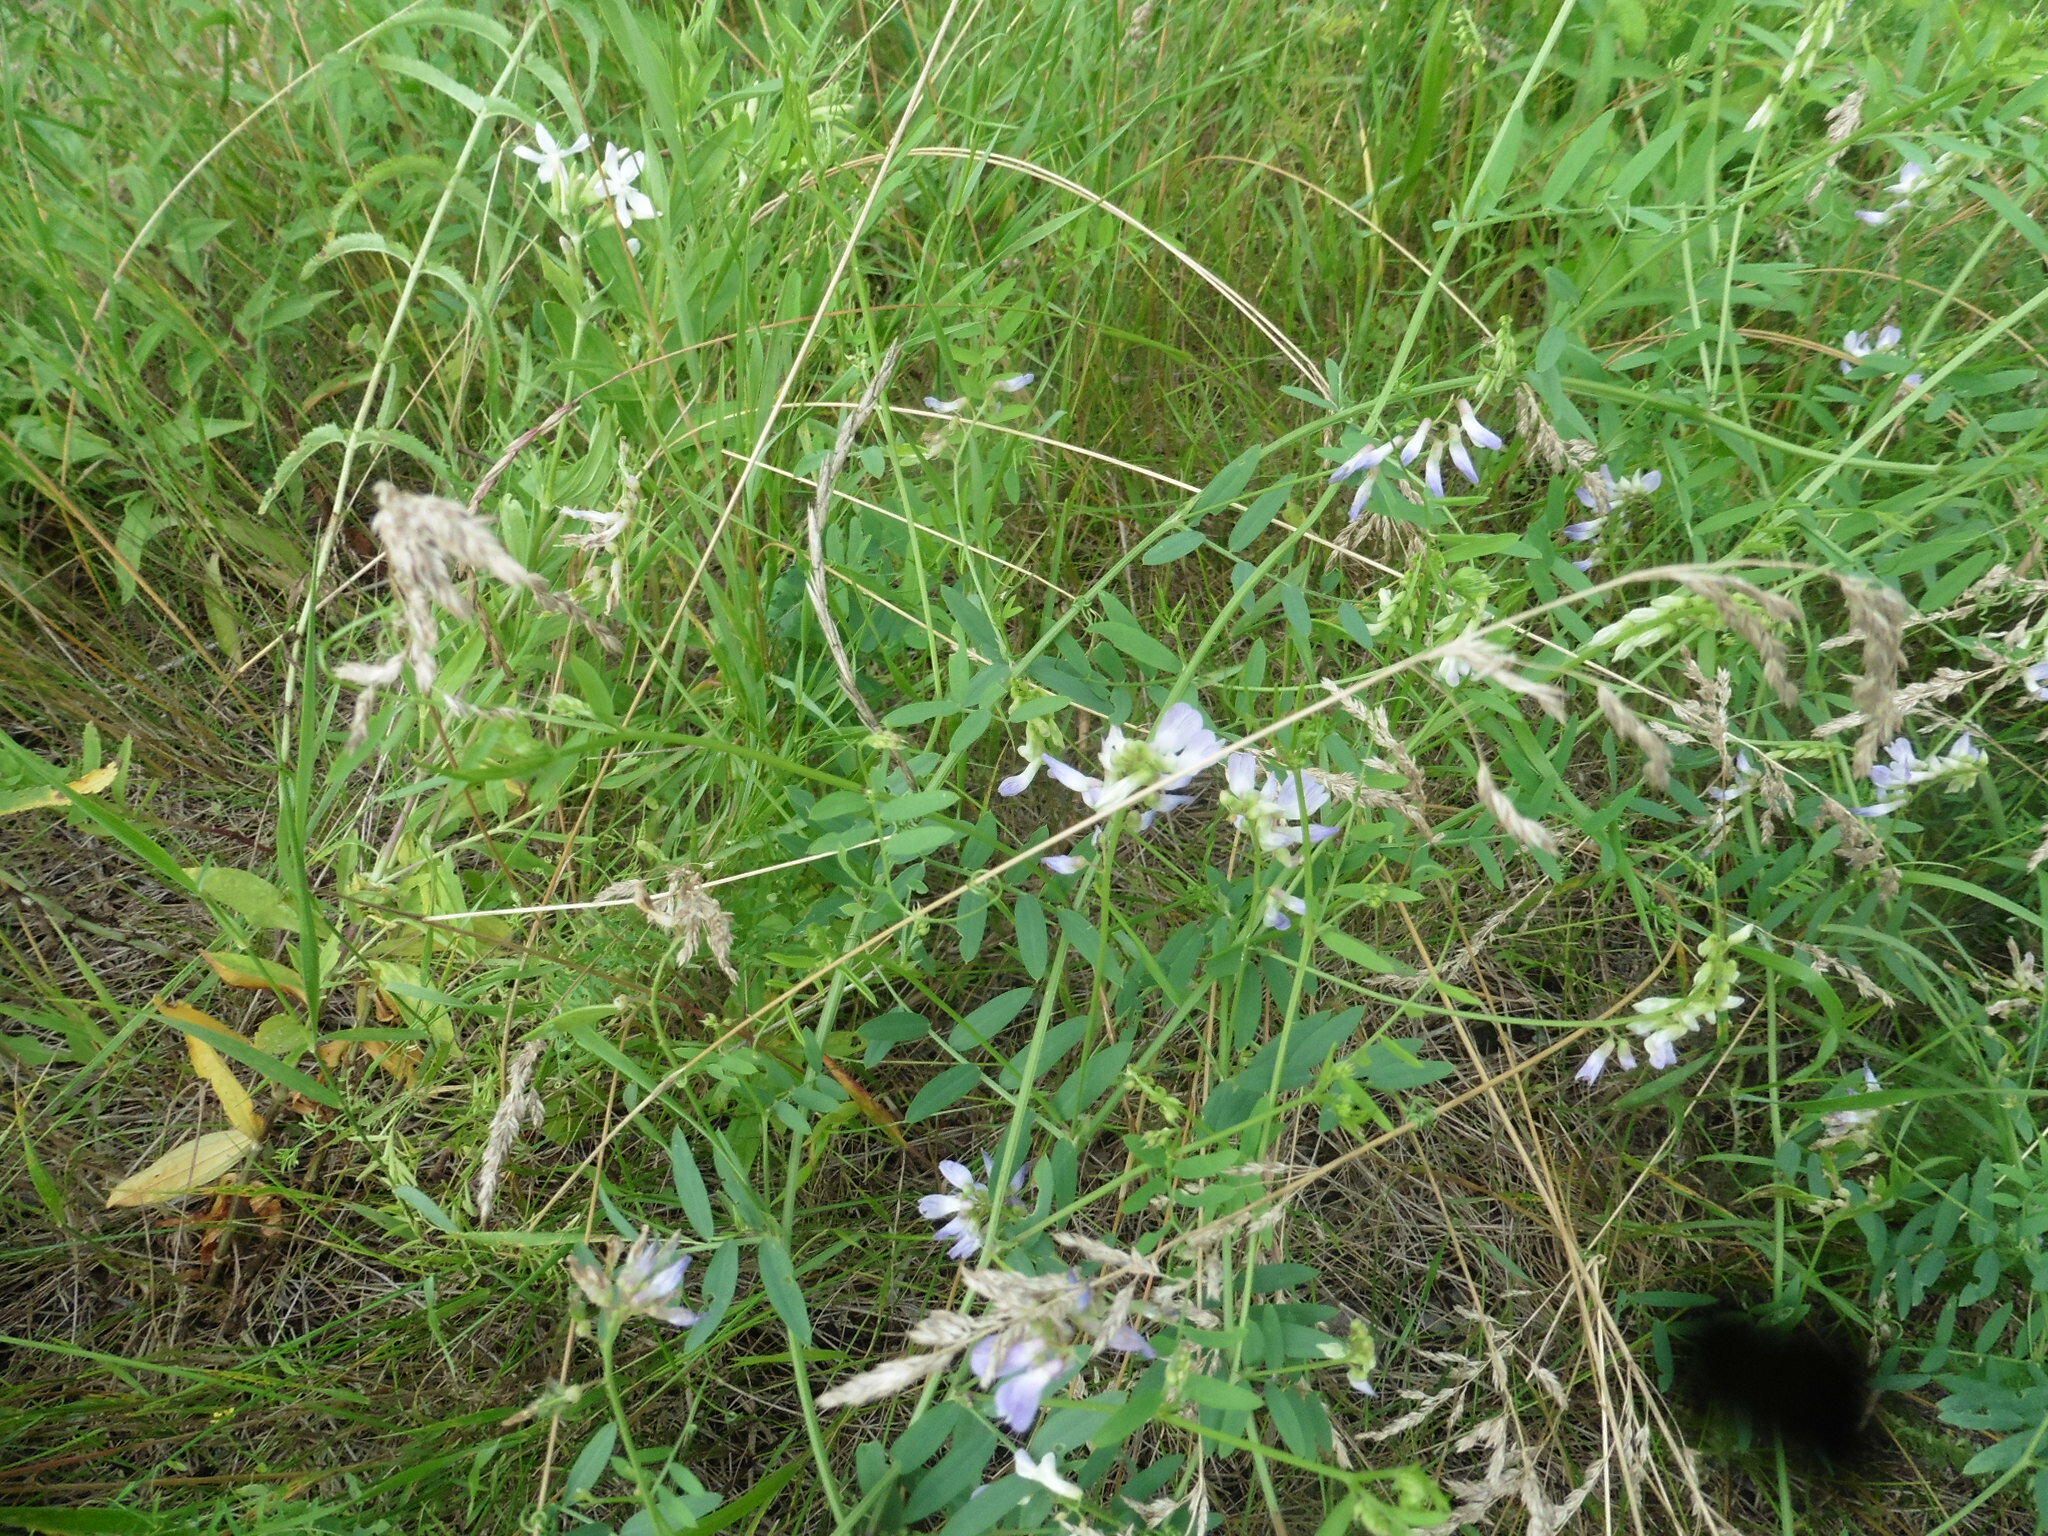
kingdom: Plantae
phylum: Tracheophyta
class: Magnoliopsida
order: Fabales
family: Fabaceae
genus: Vicia
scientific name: Vicia biennis
